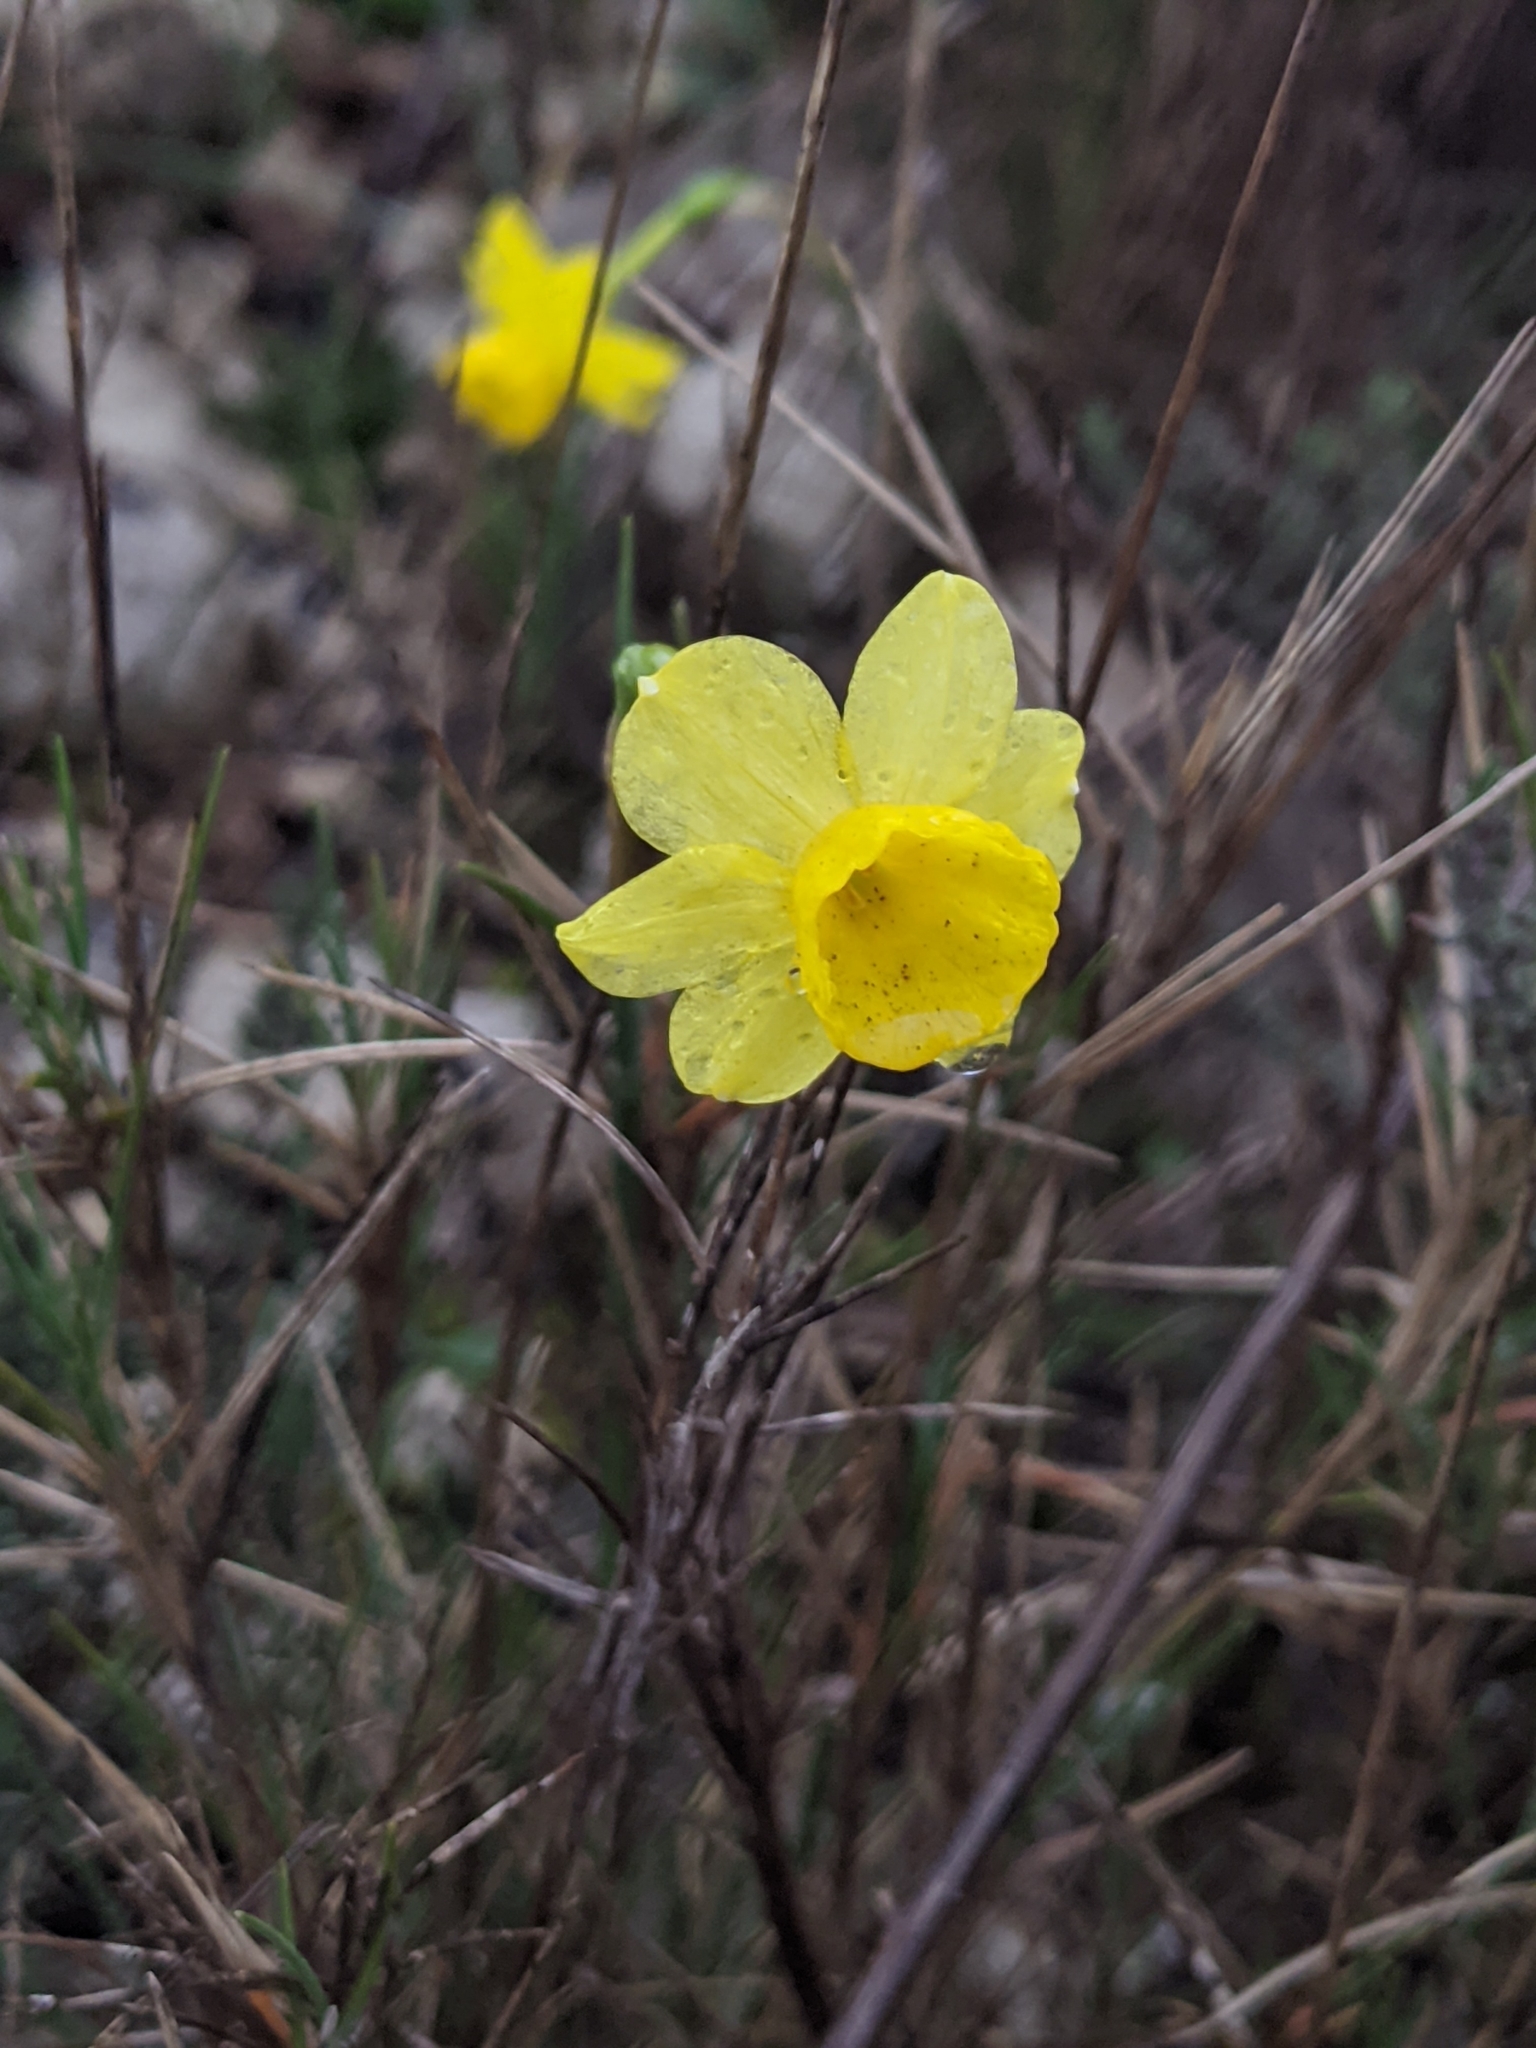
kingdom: Plantae
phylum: Tracheophyta
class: Liliopsida
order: Asparagales
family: Amaryllidaceae
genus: Narcissus
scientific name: Narcissus assoanus
